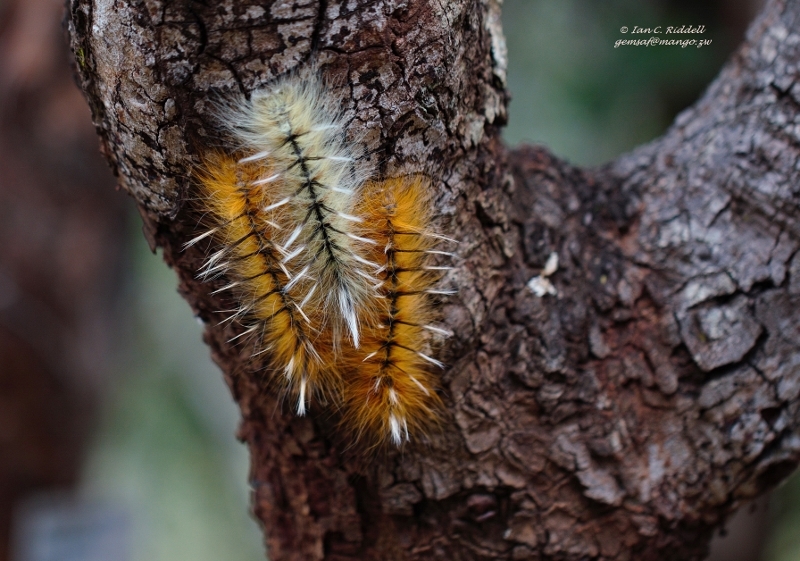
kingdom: Animalia
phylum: Arthropoda
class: Insecta
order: Lepidoptera
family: Lasiocampidae
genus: Gonometa
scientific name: Gonometa robusta
